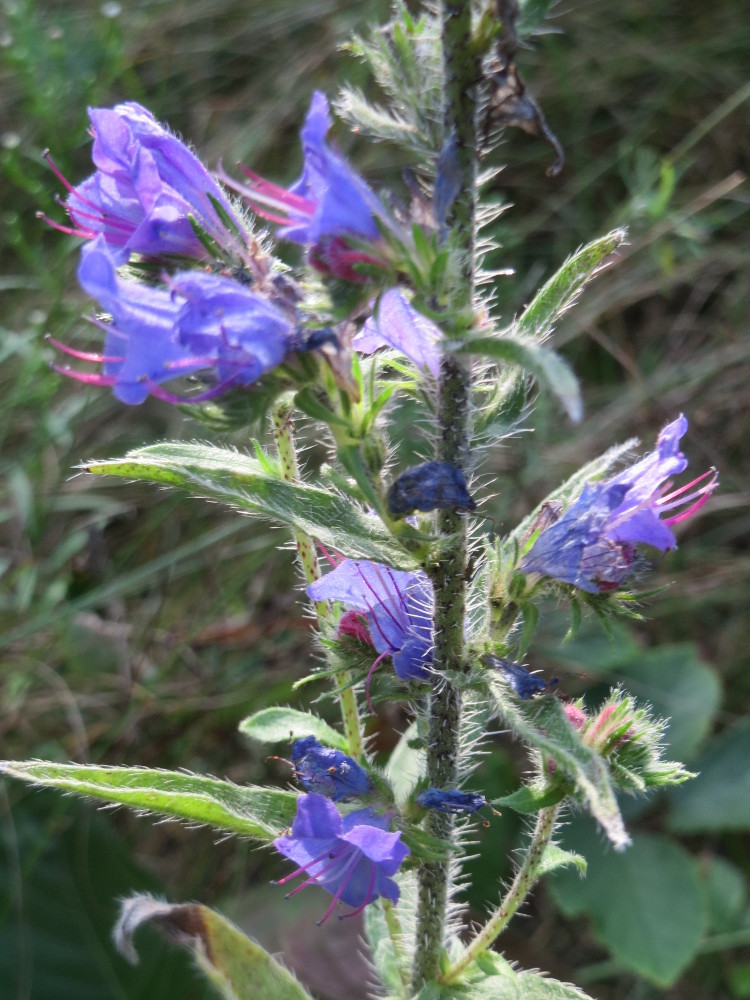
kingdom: Plantae
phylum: Tracheophyta
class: Magnoliopsida
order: Boraginales
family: Boraginaceae
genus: Echium
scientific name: Echium vulgare
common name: Common viper's bugloss
